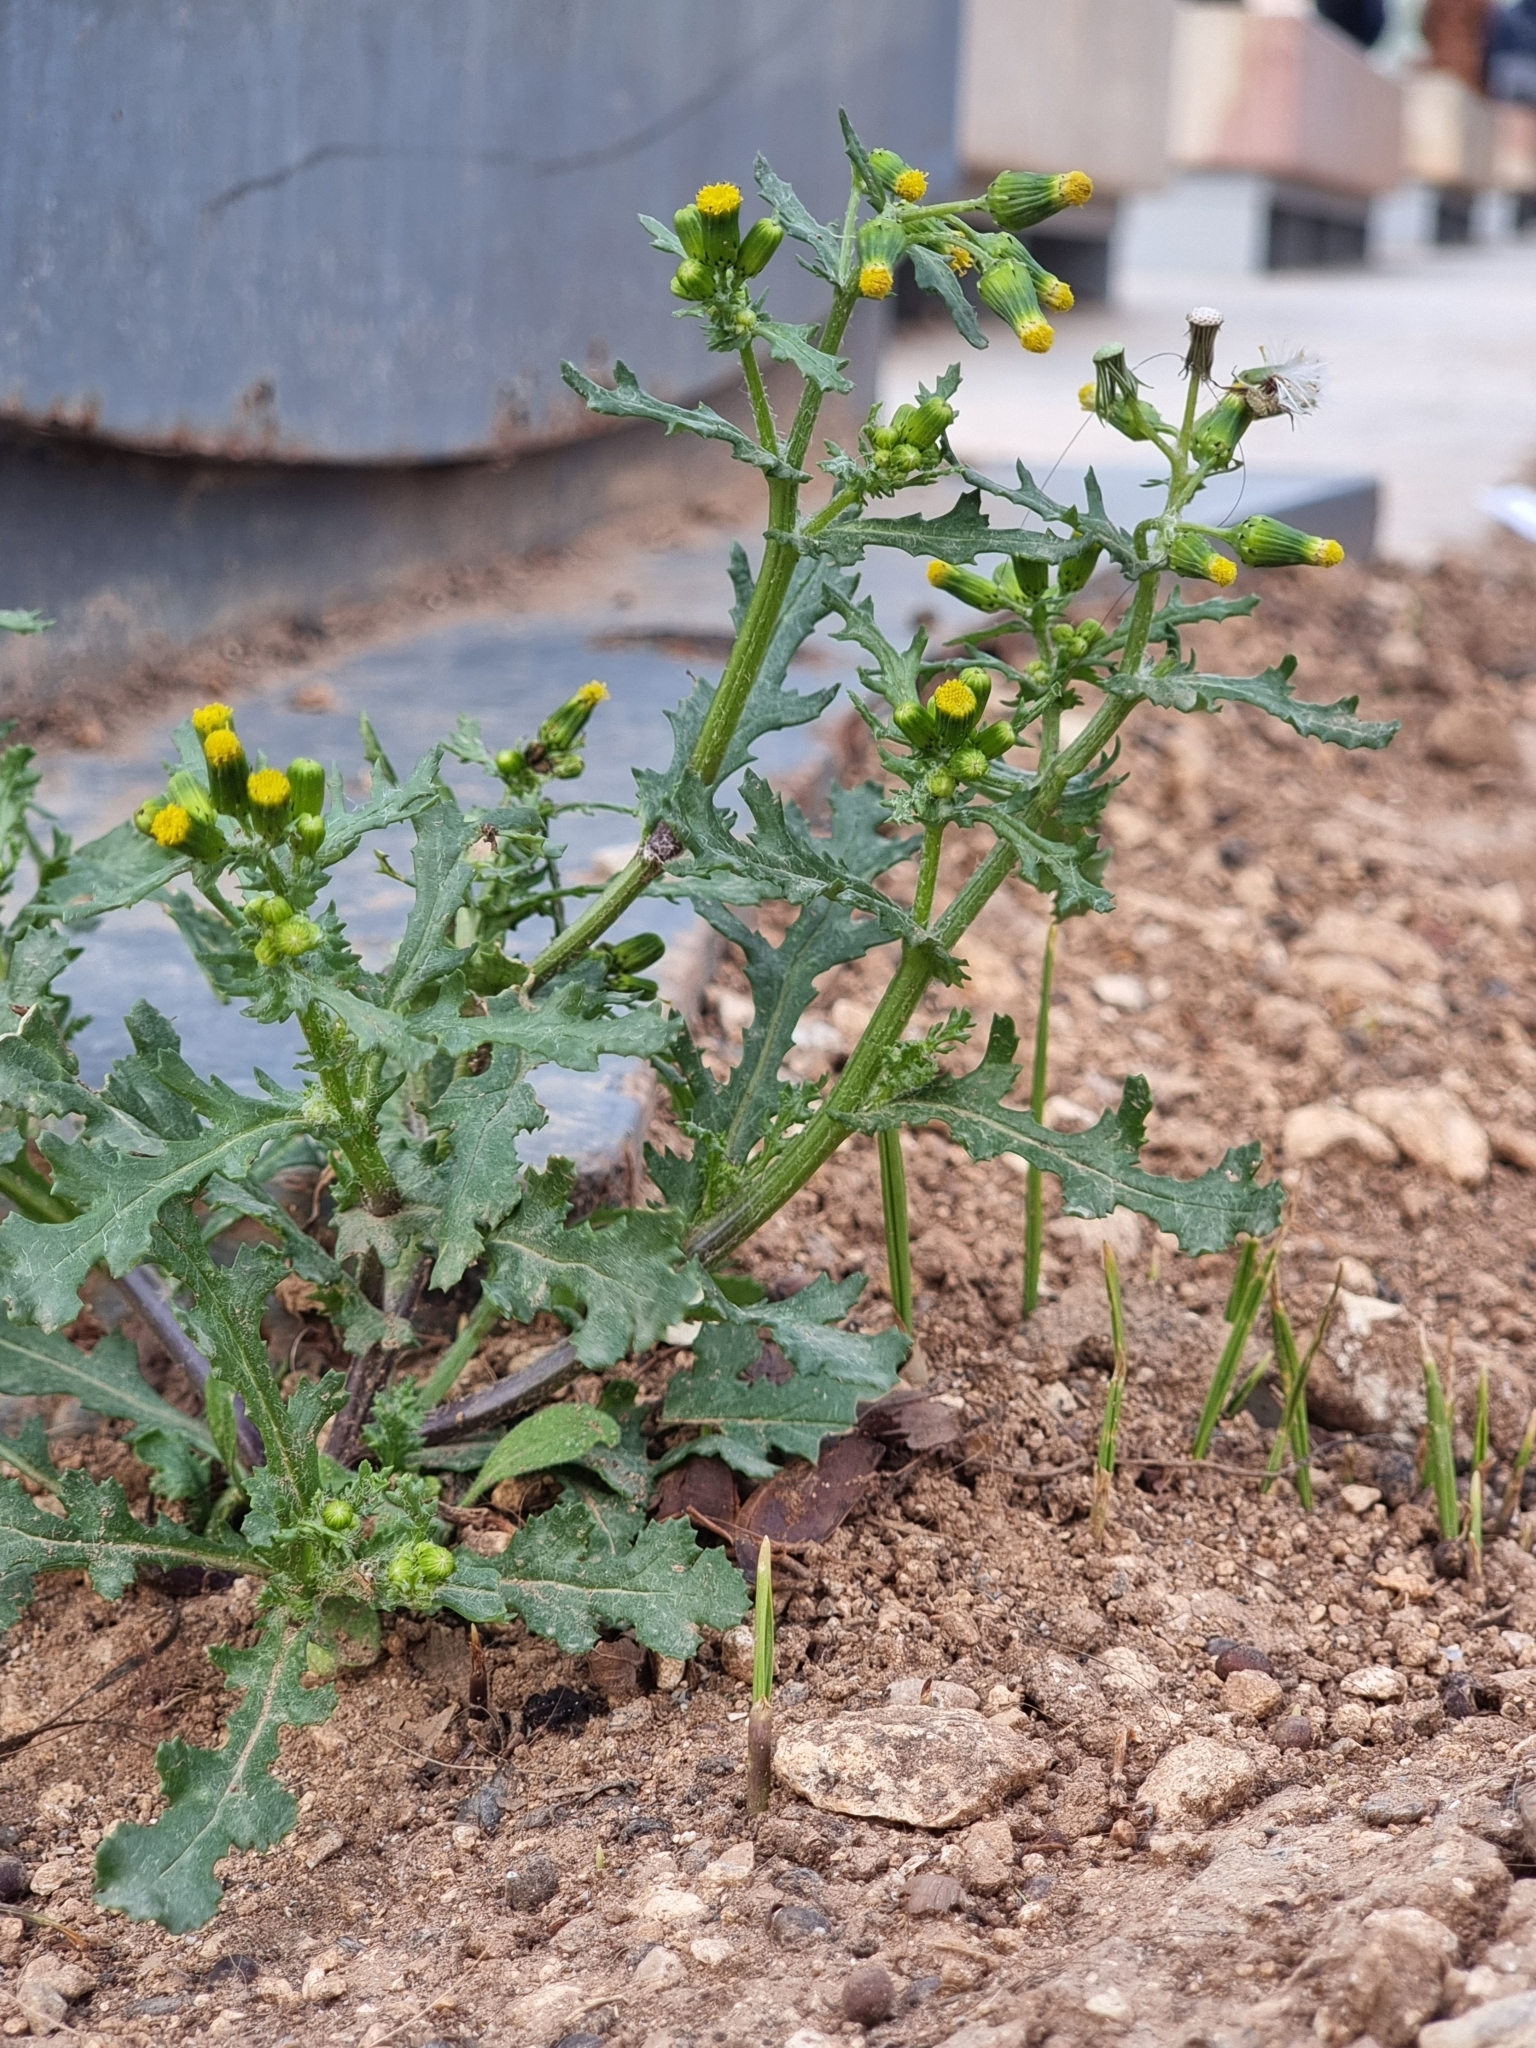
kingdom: Plantae
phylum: Tracheophyta
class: Magnoliopsida
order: Asterales
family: Asteraceae
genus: Senecio
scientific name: Senecio vulgaris
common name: Old-man-in-the-spring
